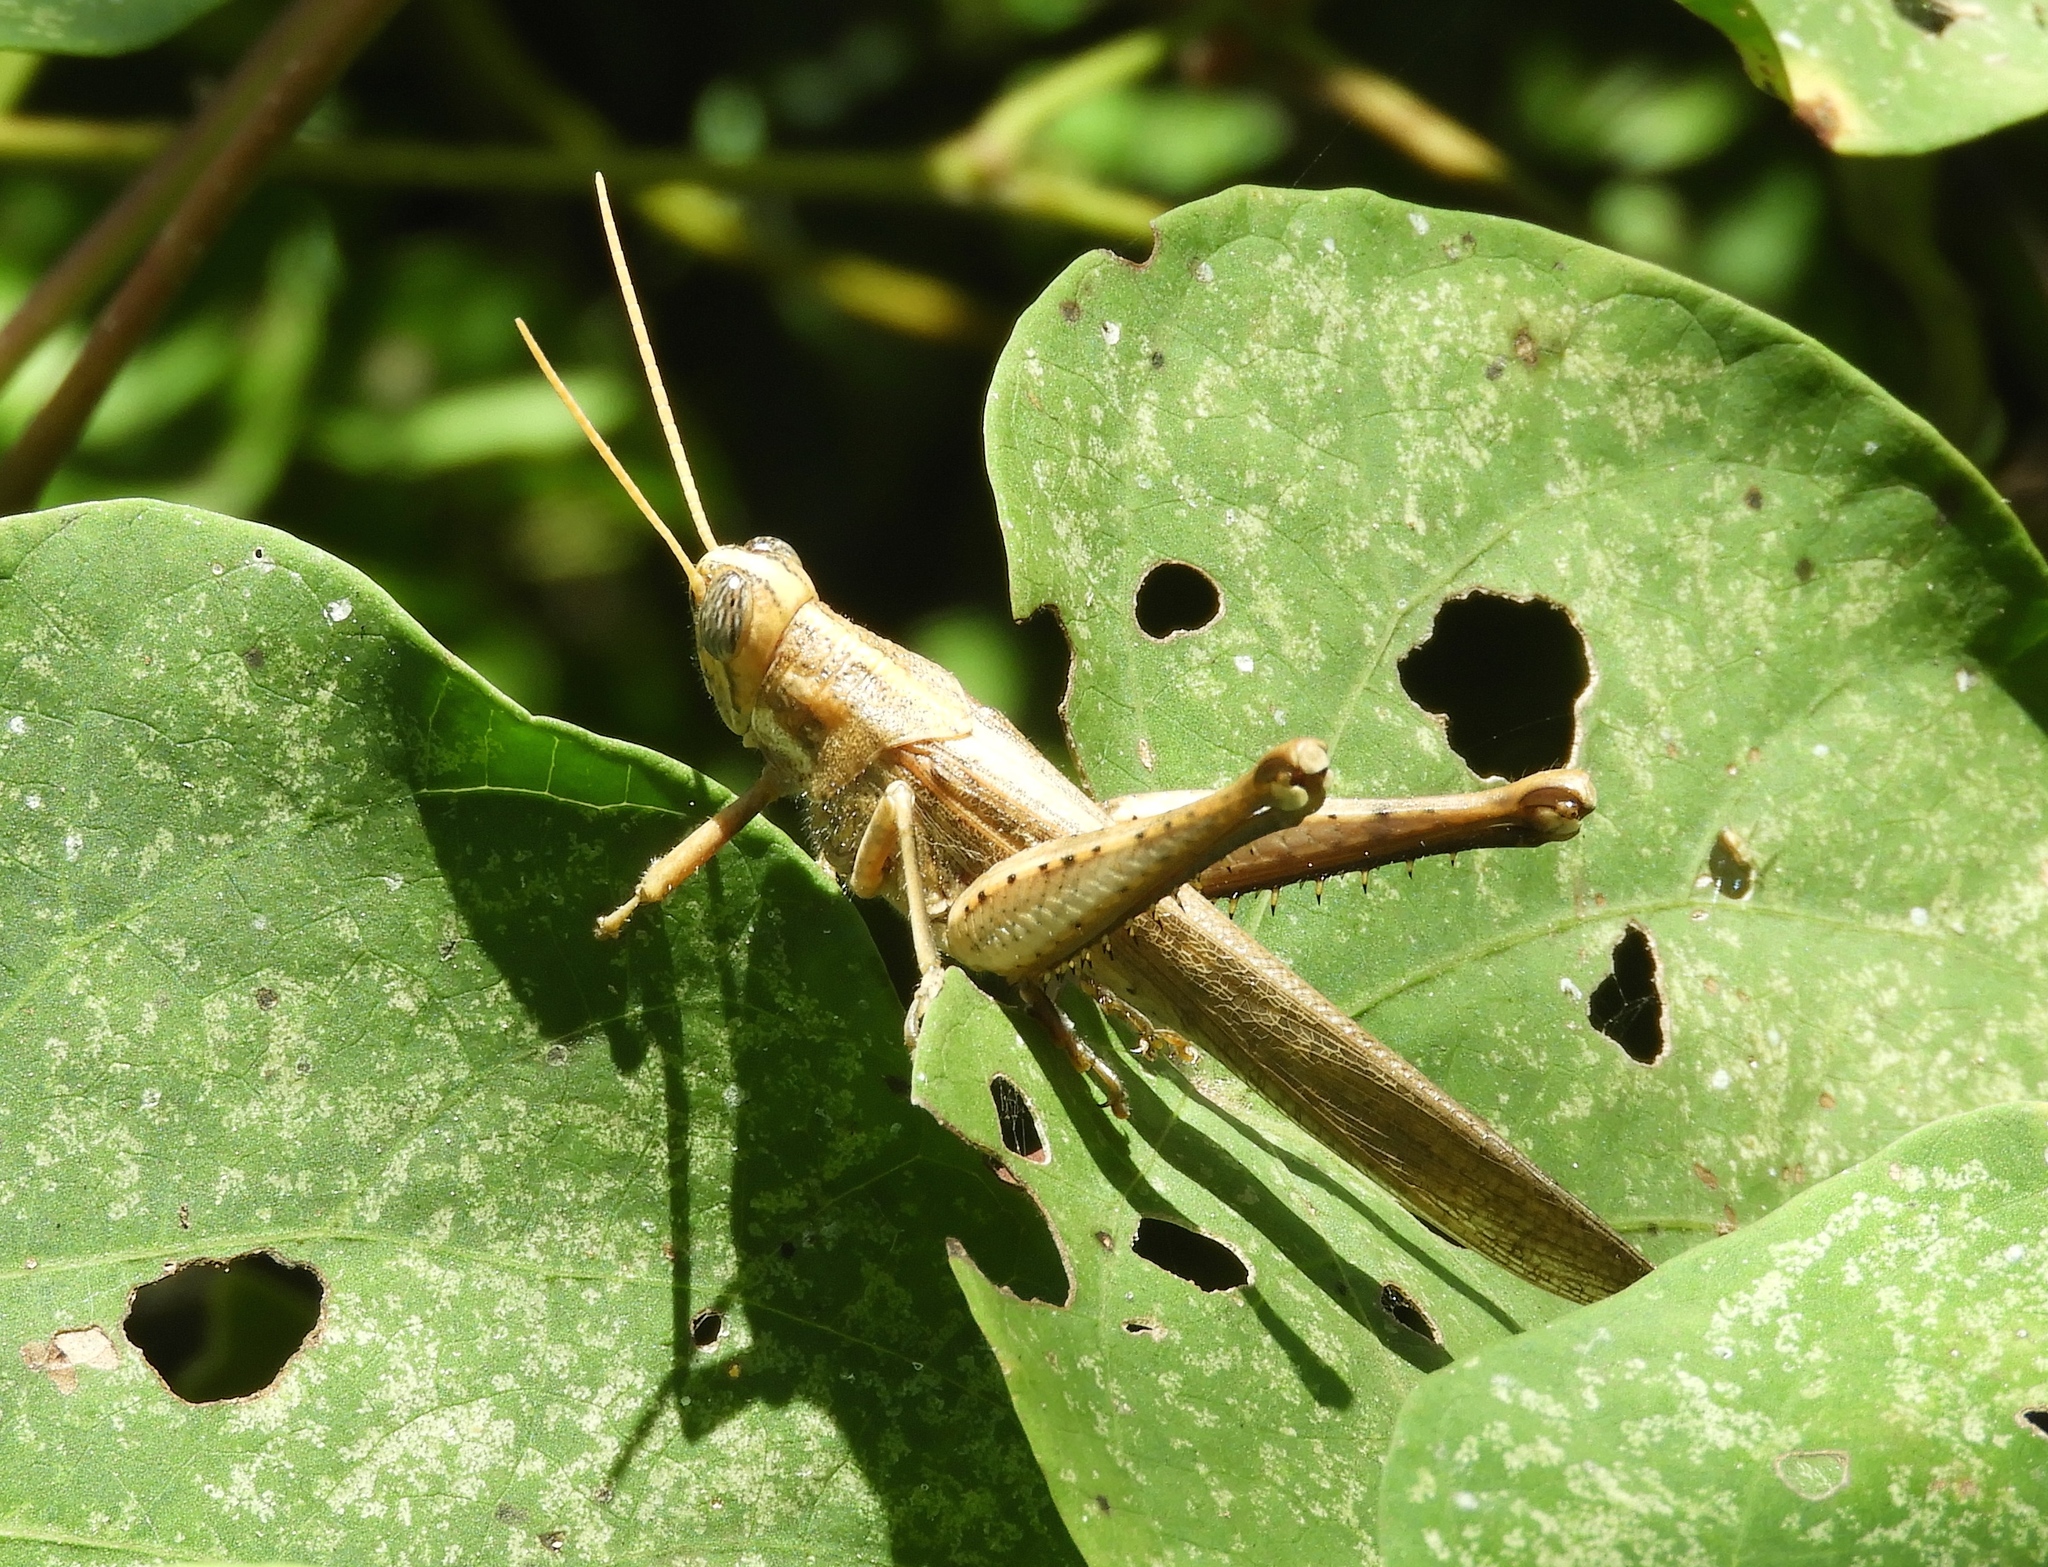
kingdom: Animalia
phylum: Arthropoda
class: Insecta
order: Orthoptera
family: Acrididae
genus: Schistocerca
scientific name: Schistocerca nitens
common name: Vagrant grasshopper
